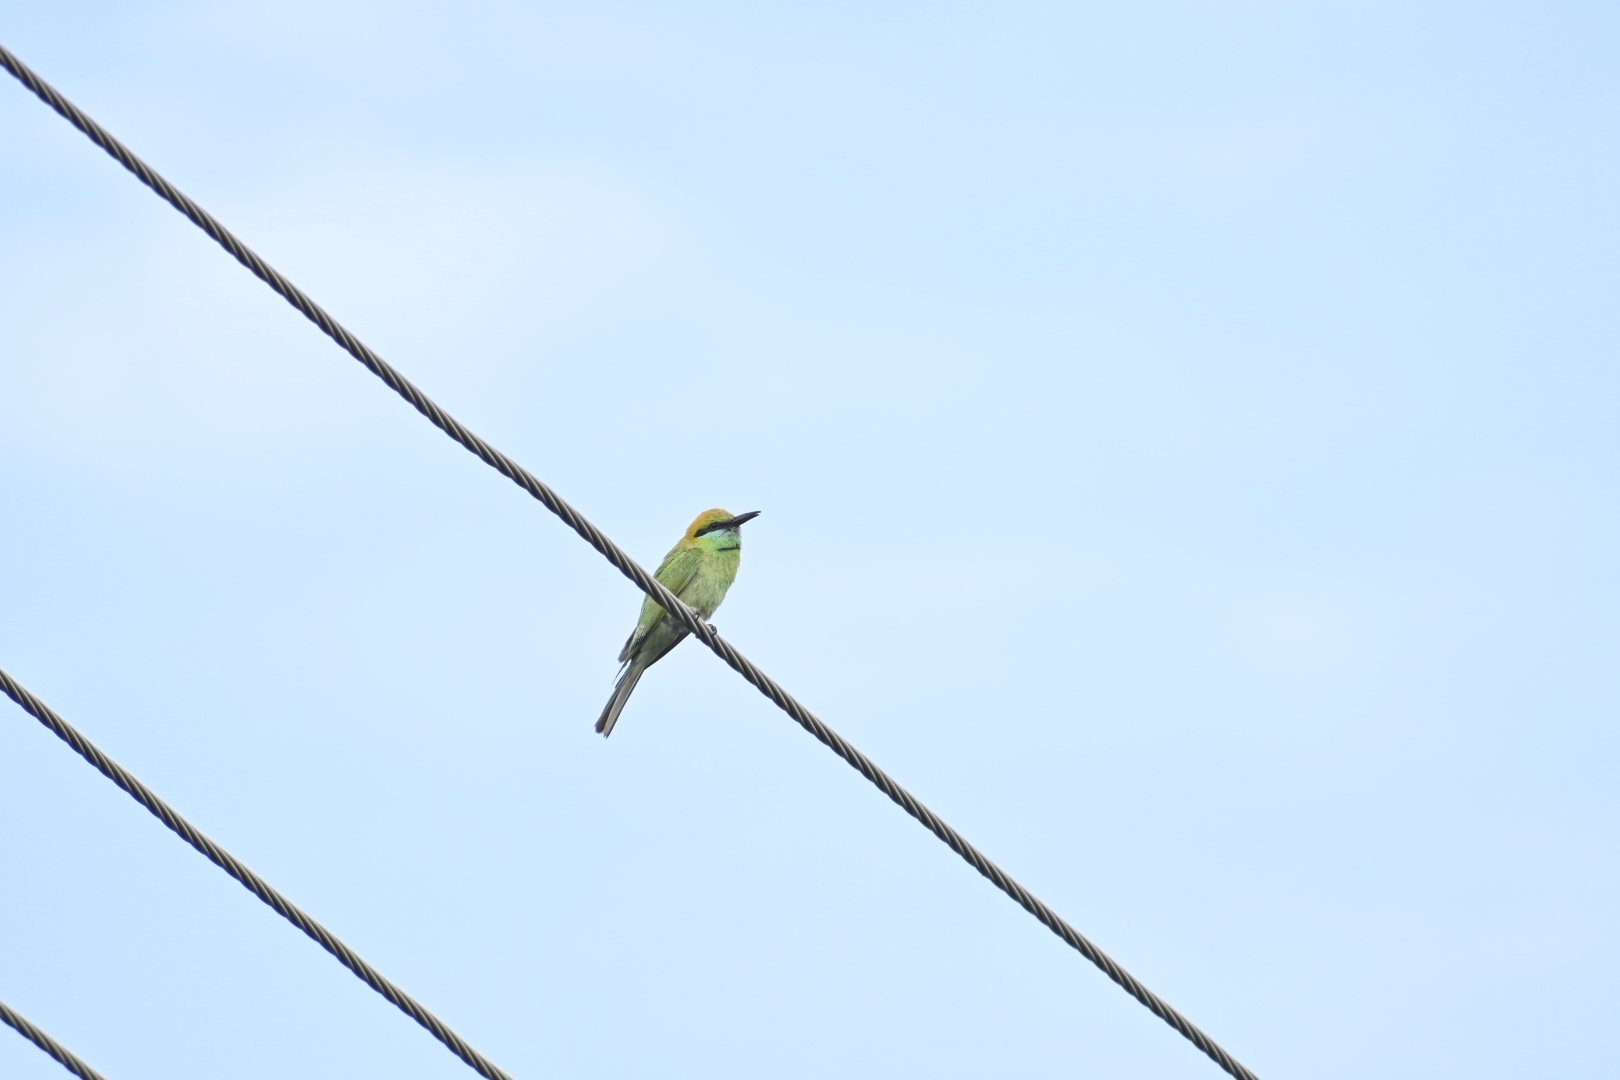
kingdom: Animalia
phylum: Chordata
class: Aves
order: Coraciiformes
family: Meropidae
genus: Merops
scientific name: Merops orientalis
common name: Green bee-eater
